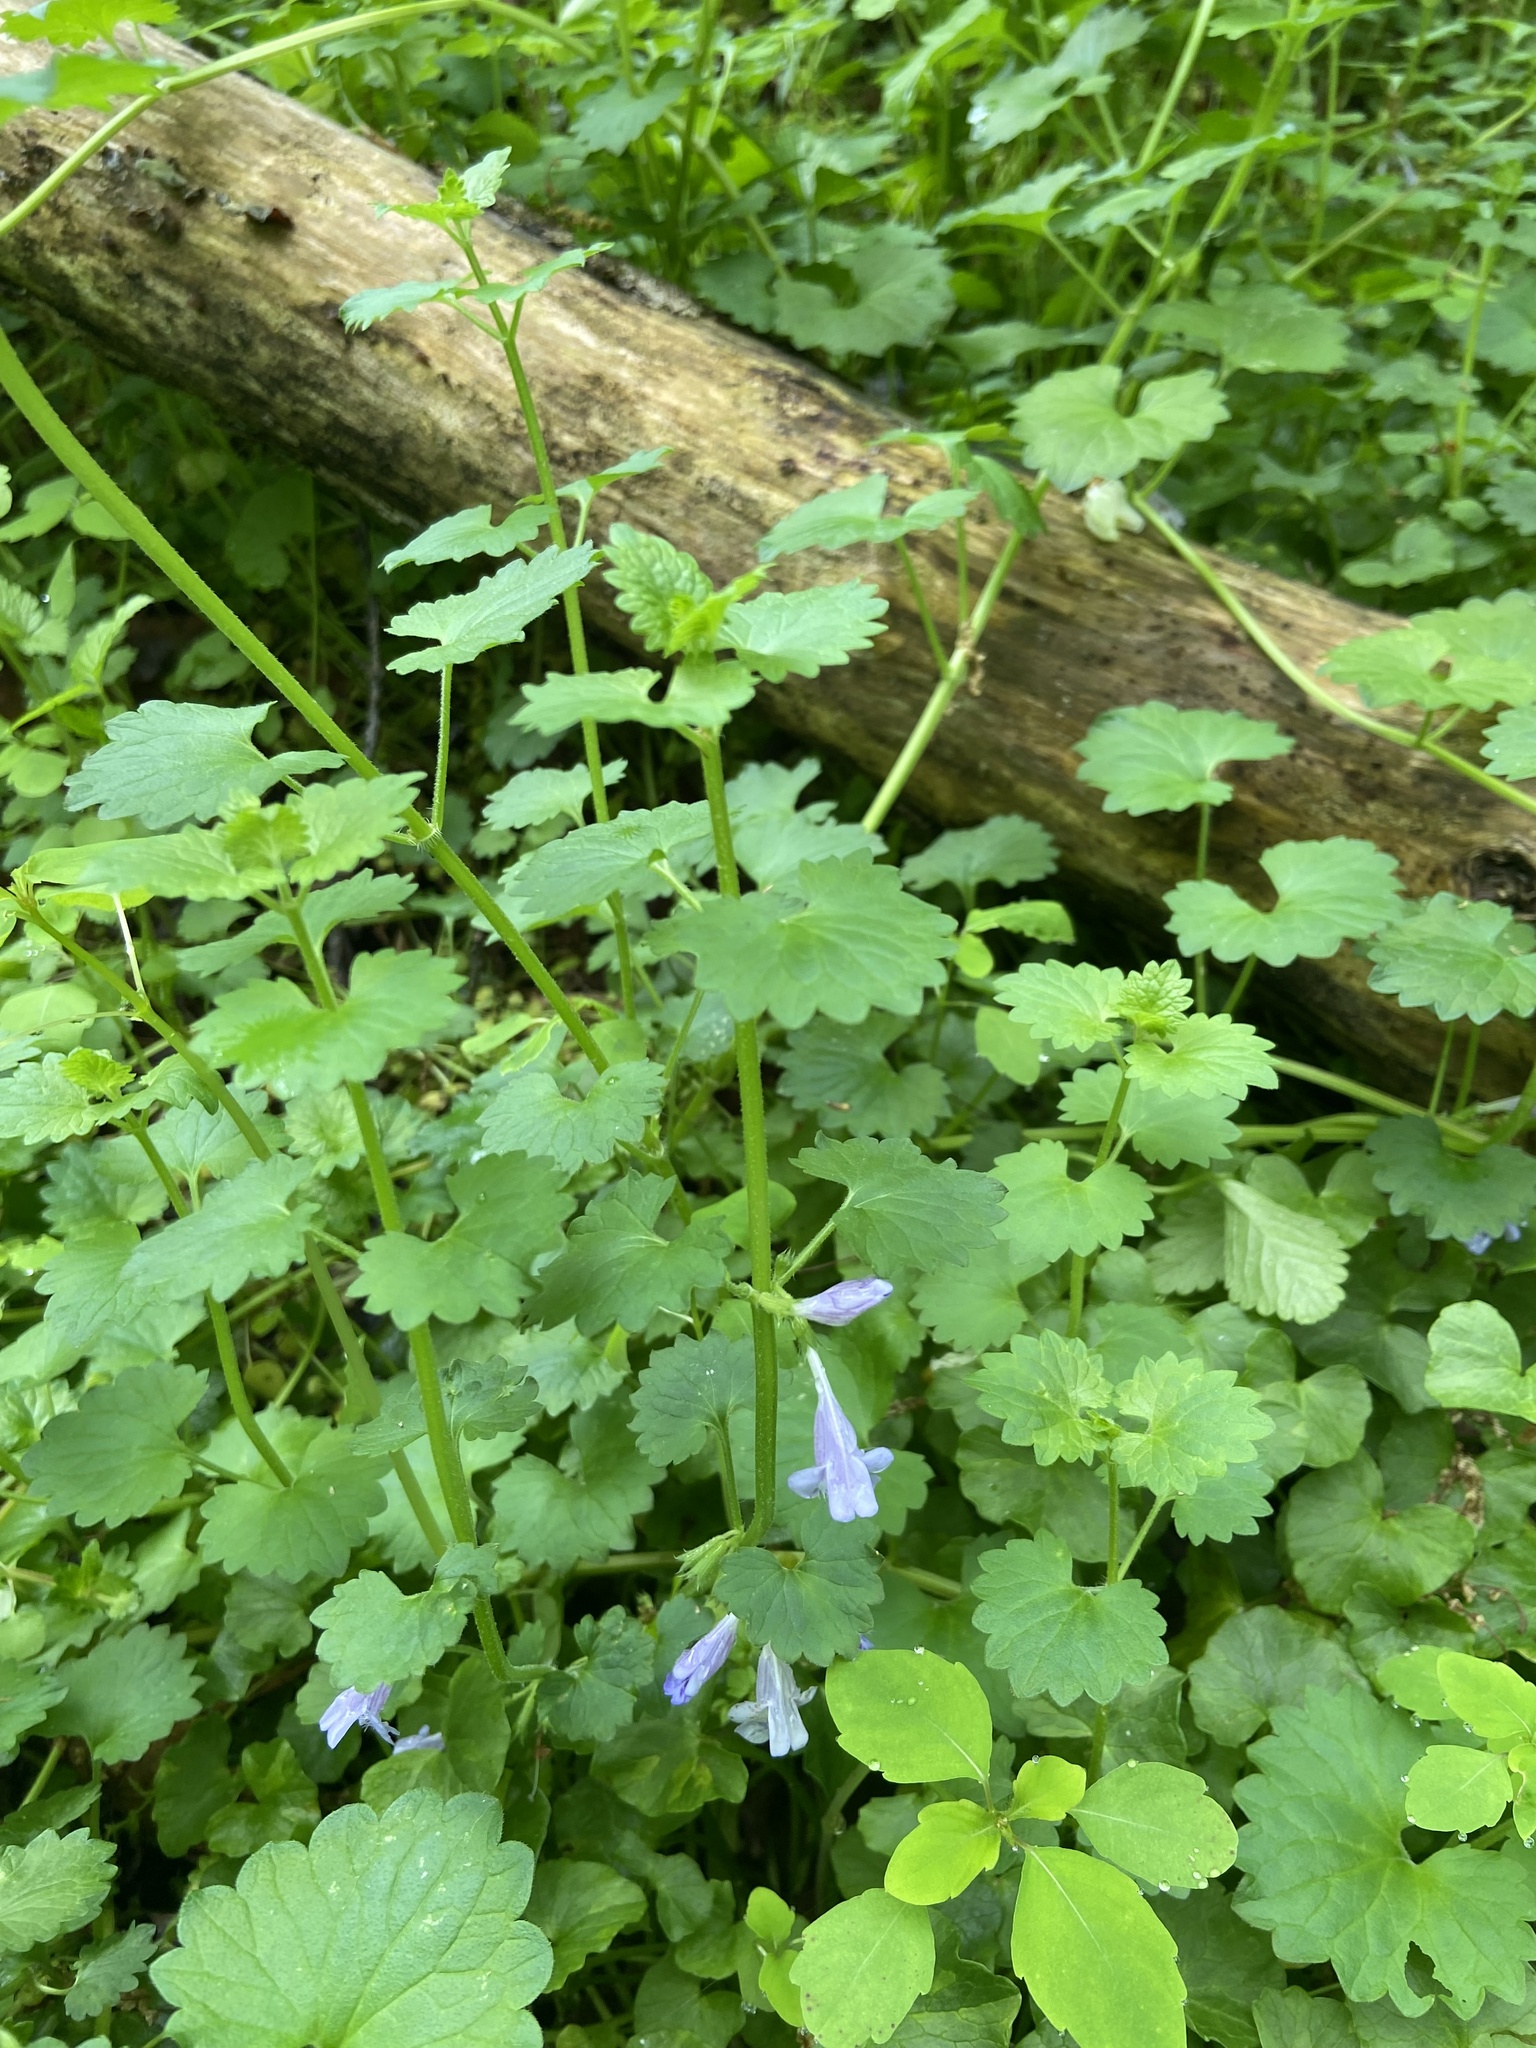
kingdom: Plantae
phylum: Tracheophyta
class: Magnoliopsida
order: Lamiales
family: Lamiaceae
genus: Glechoma
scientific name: Glechoma hederacea
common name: Ground ivy
